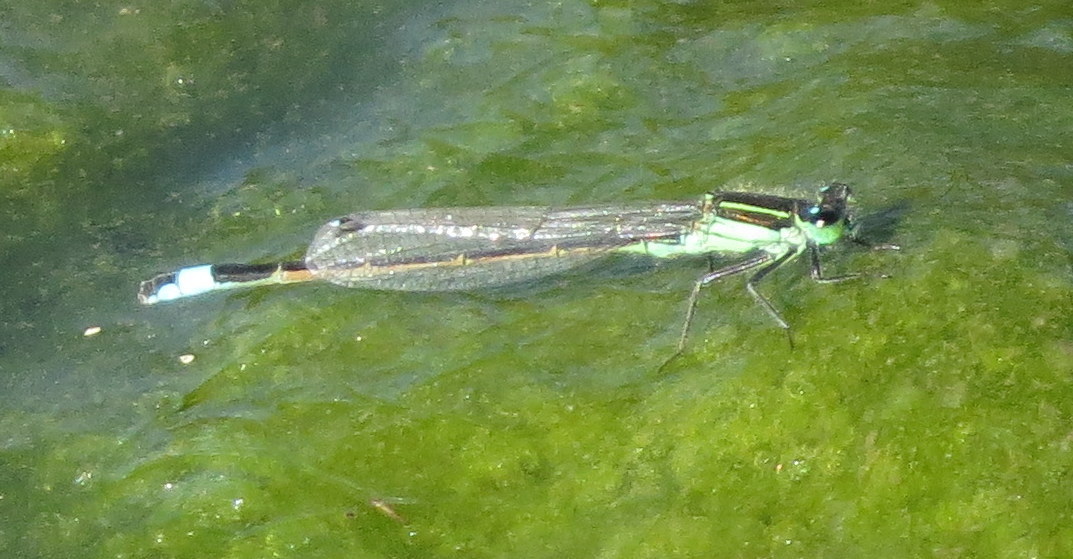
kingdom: Animalia
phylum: Arthropoda
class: Insecta
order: Odonata
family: Coenagrionidae
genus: Ischnura
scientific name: Ischnura ramburii
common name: Rambur's forktail
